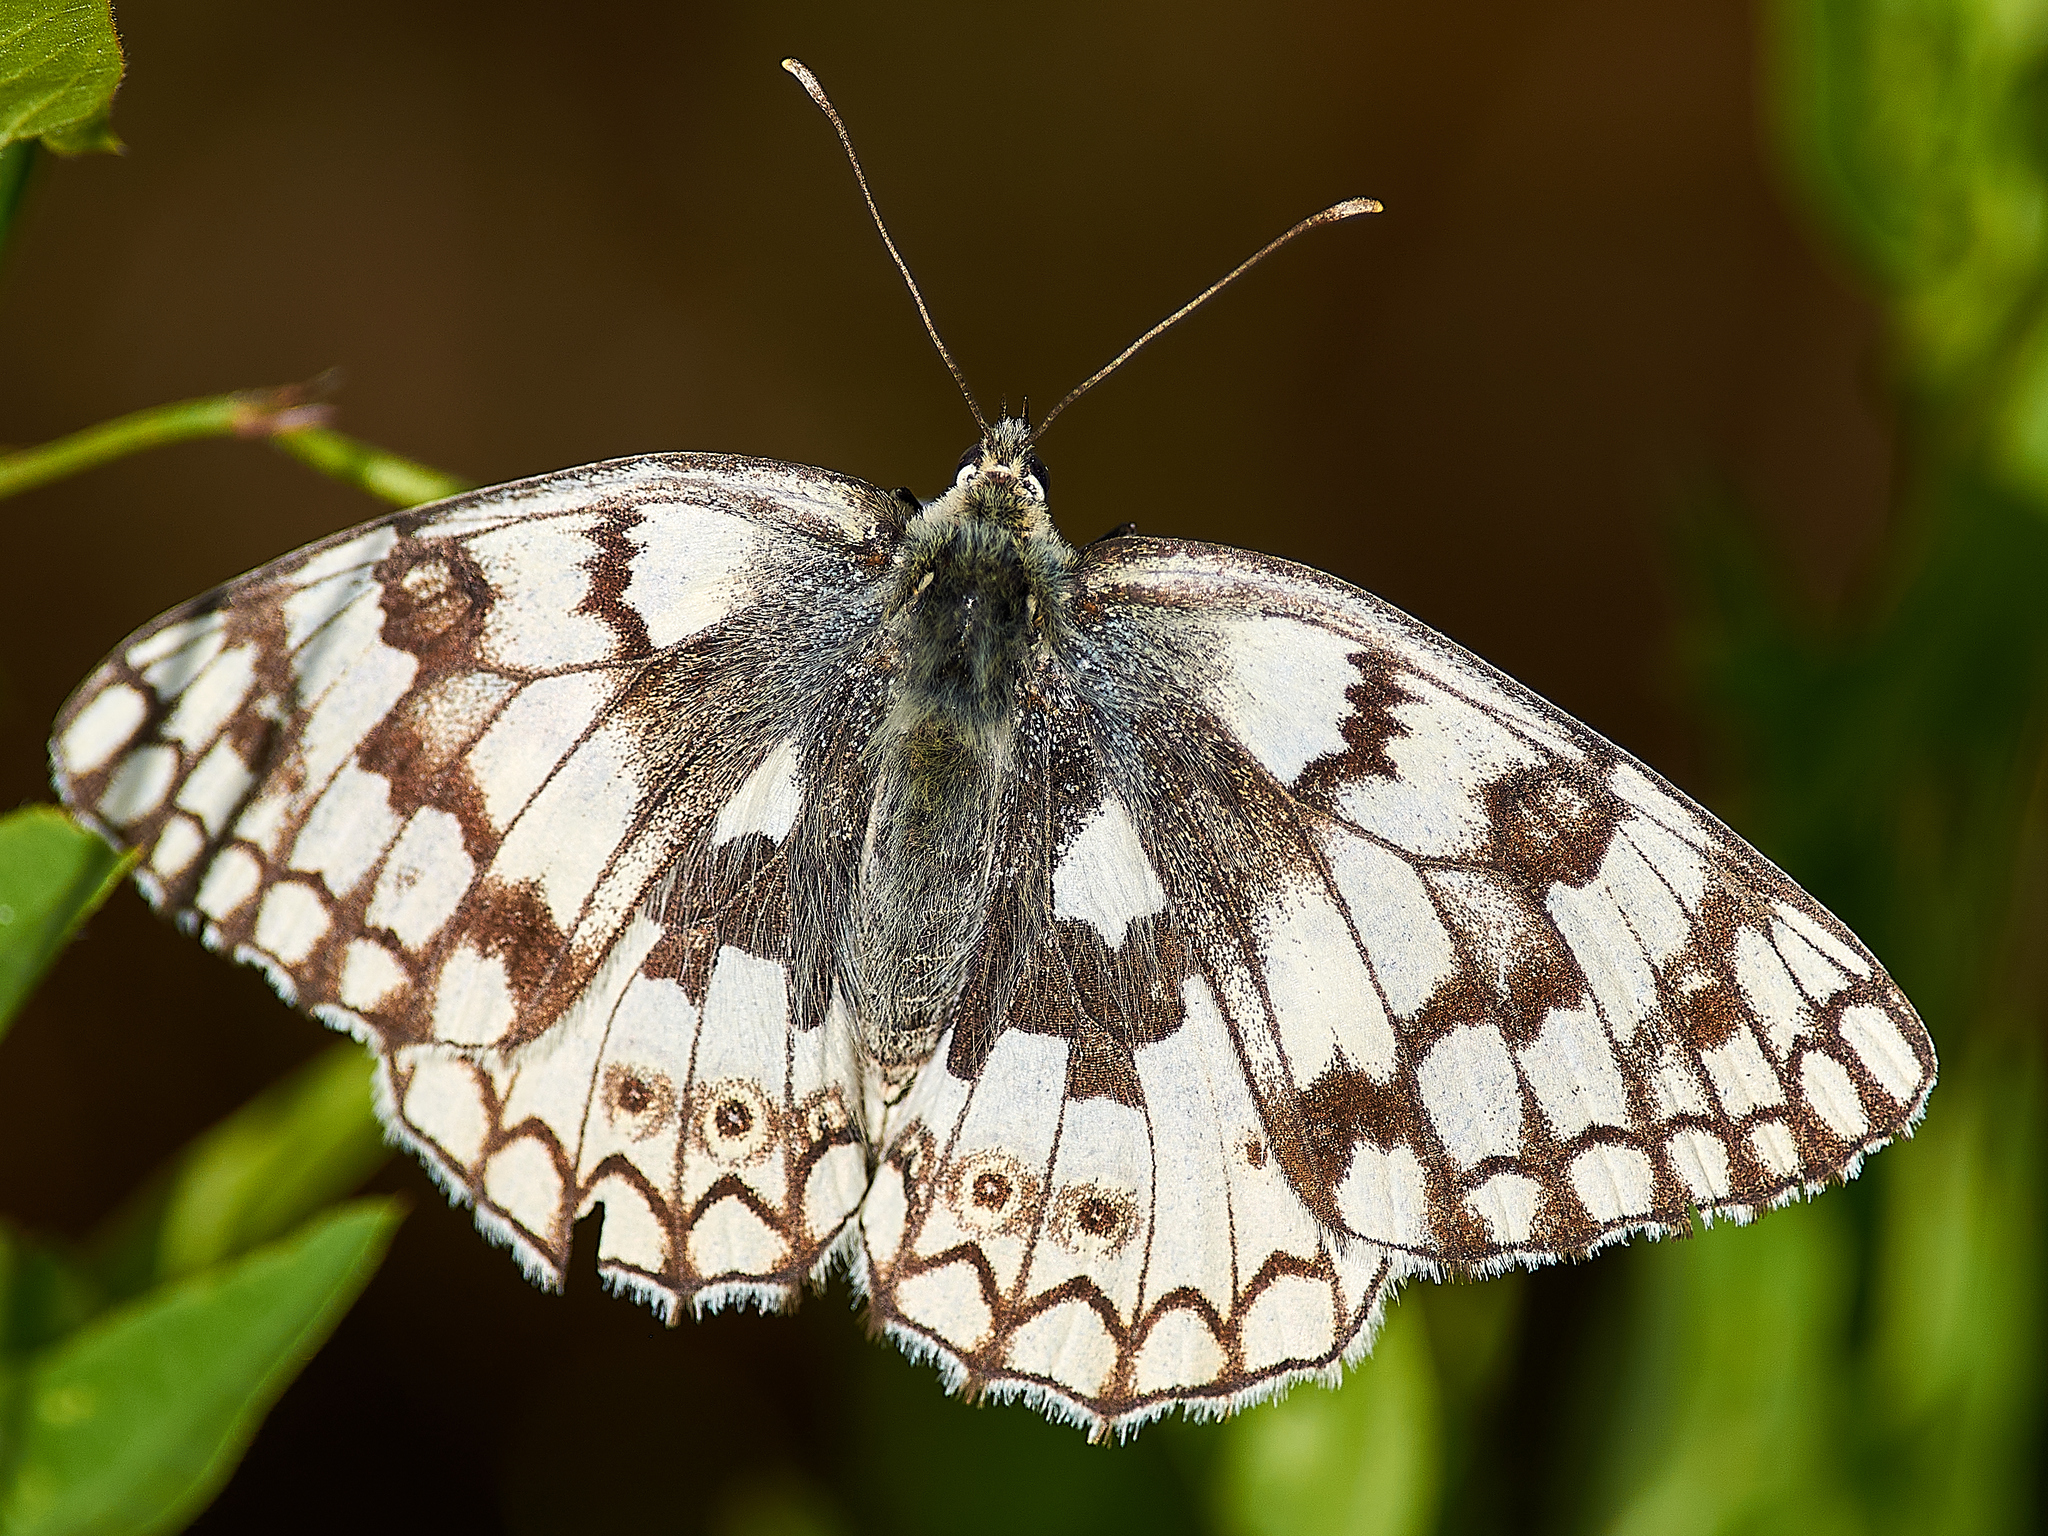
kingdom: Animalia
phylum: Arthropoda
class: Insecta
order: Lepidoptera
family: Nymphalidae
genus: Melanargia
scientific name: Melanargia japygia
